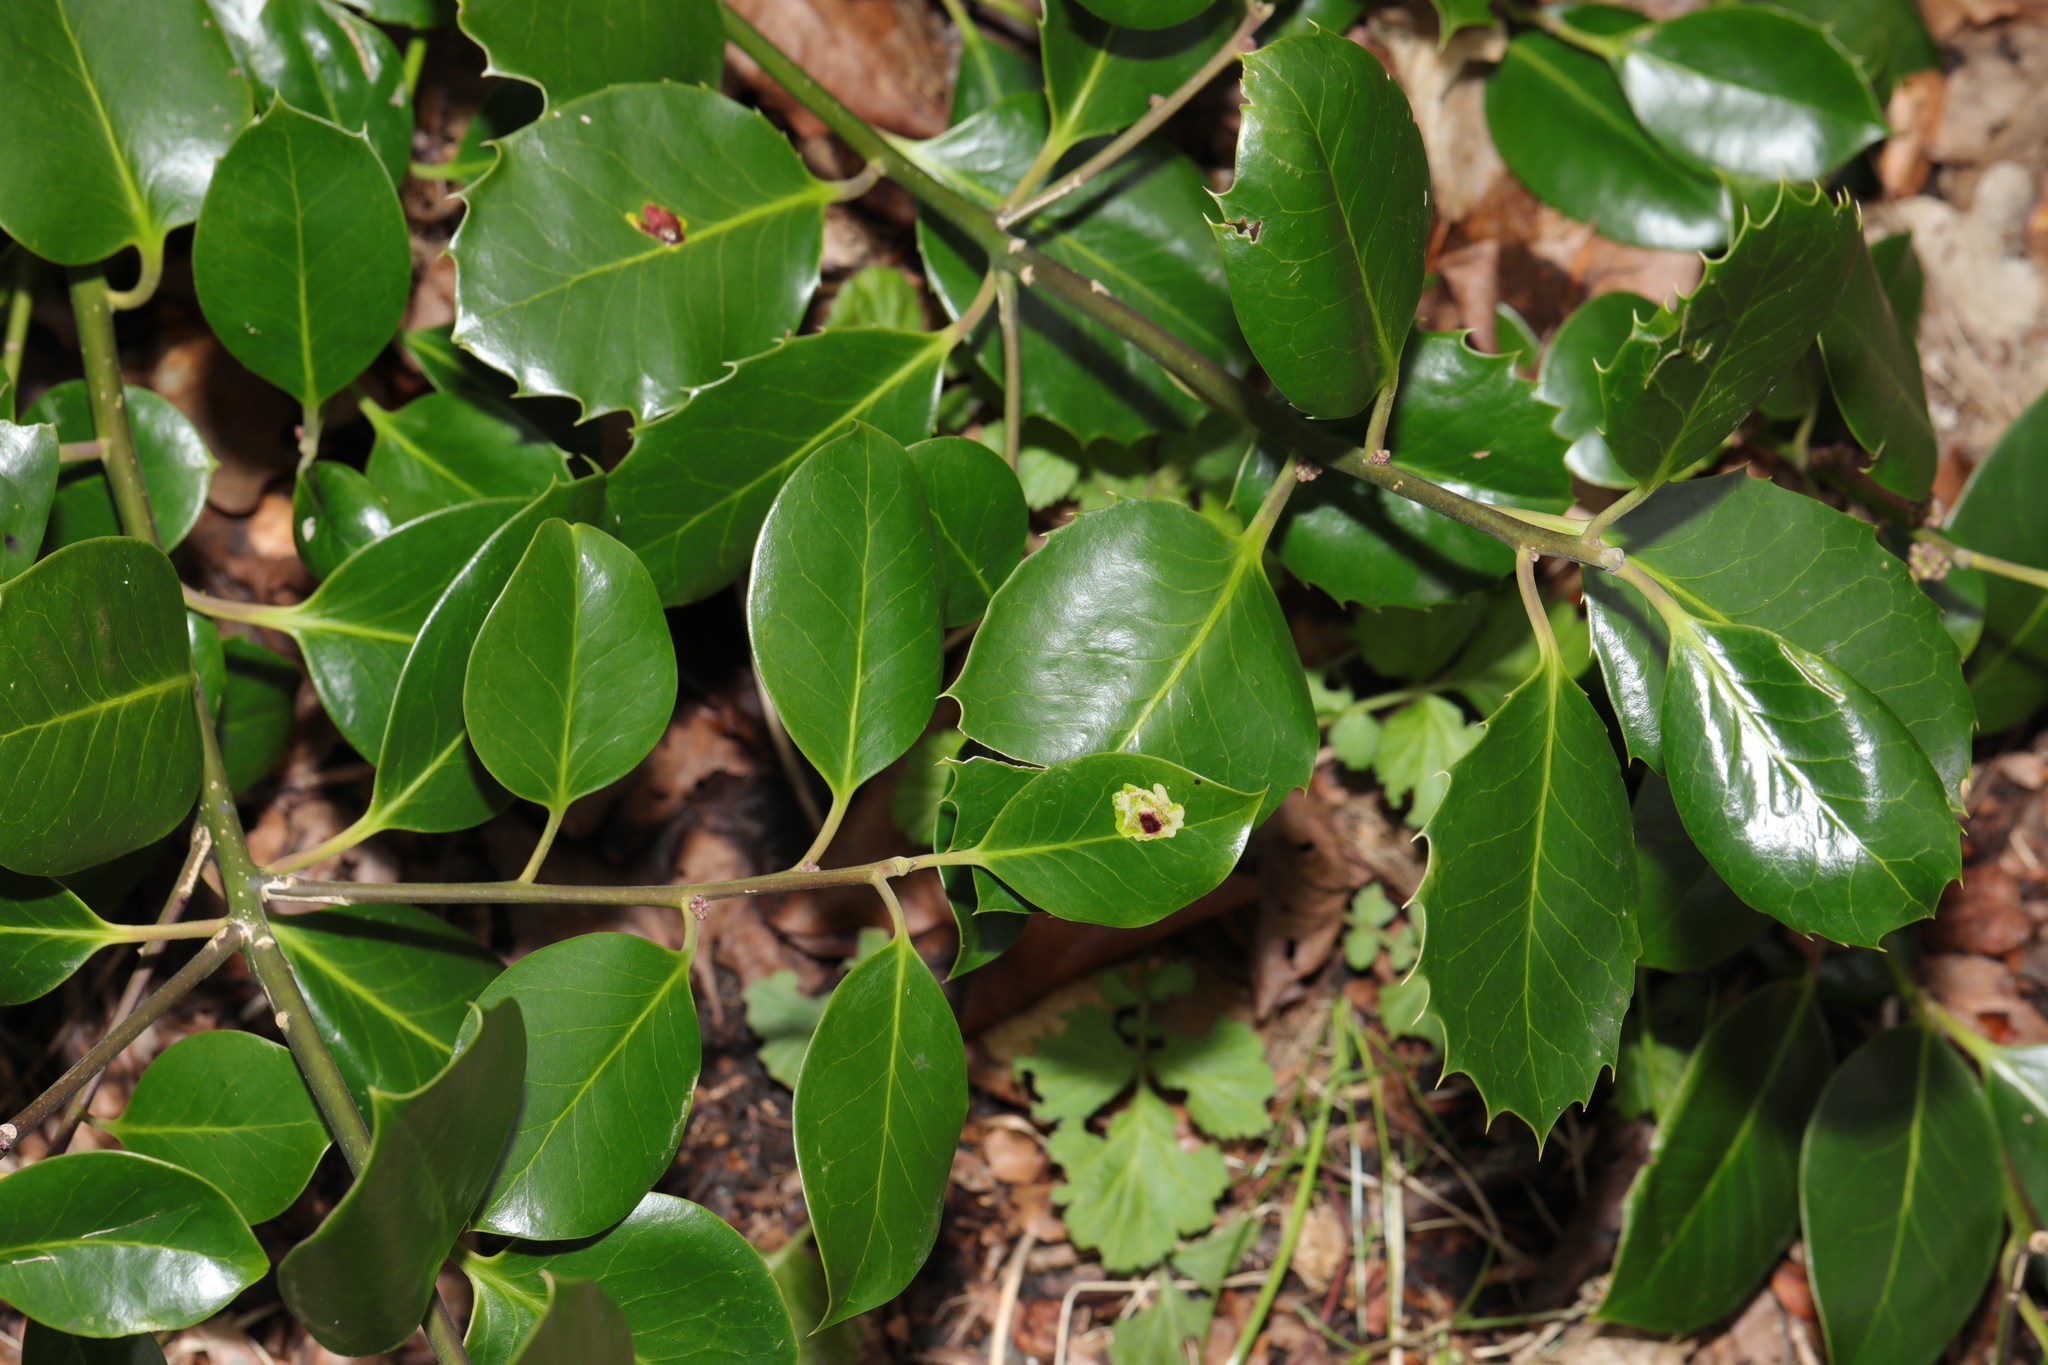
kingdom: Plantae
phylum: Tracheophyta
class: Magnoliopsida
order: Aquifoliales
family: Aquifoliaceae
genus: Ilex
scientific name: Ilex altaclerensis
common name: Highclere holly
